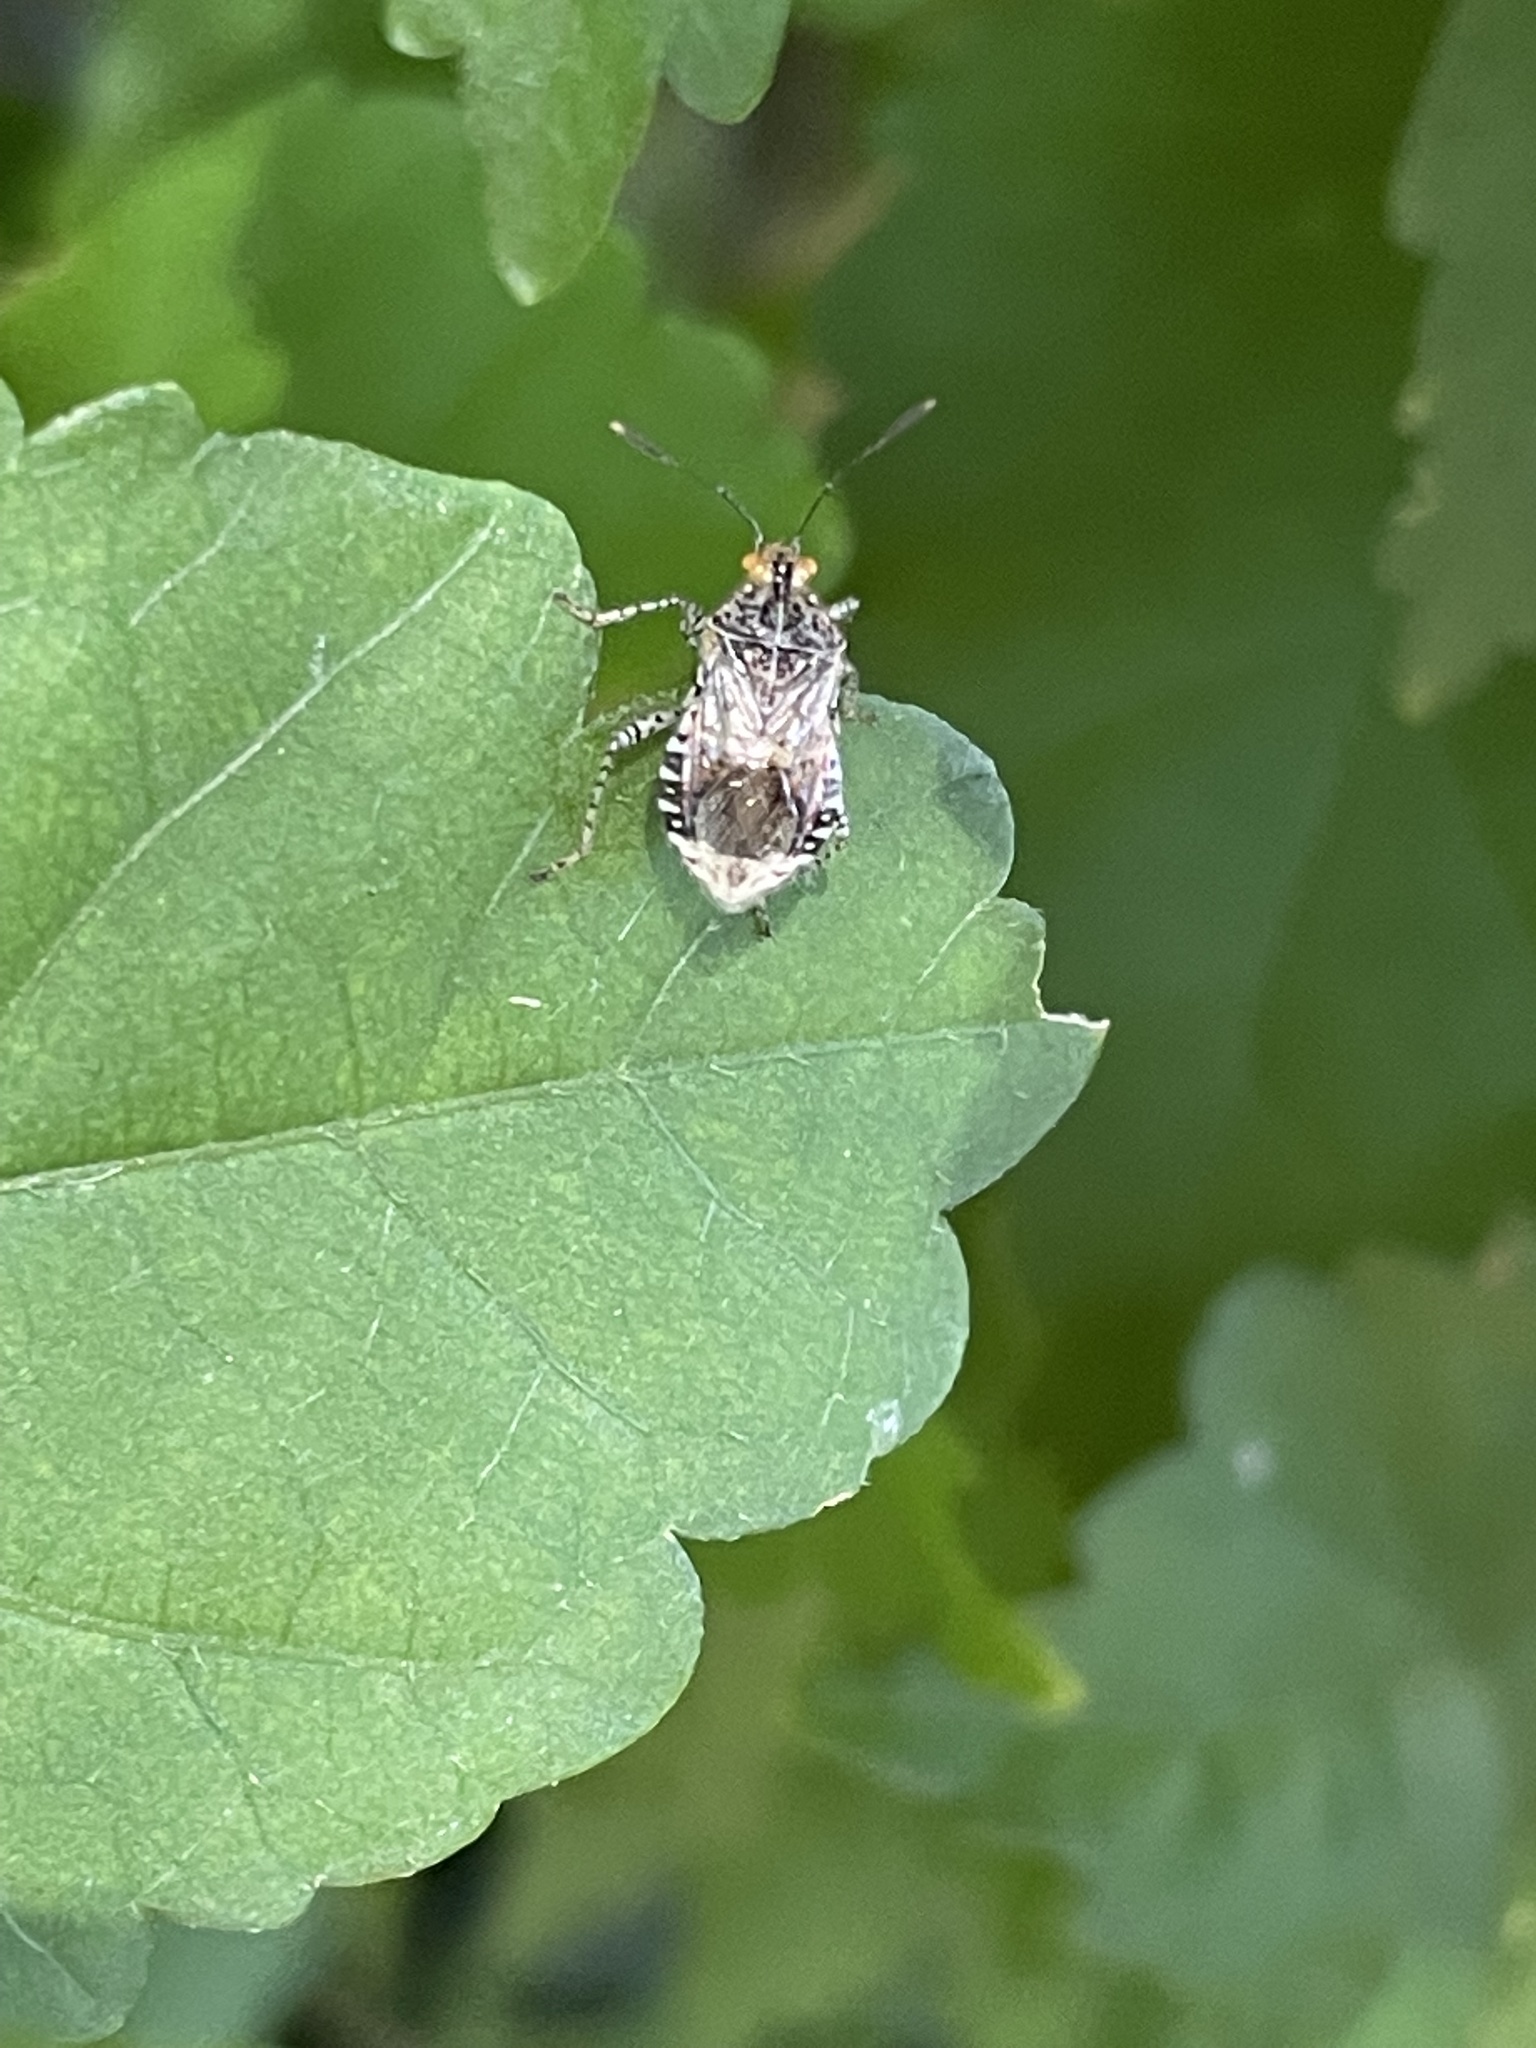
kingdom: Animalia
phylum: Arthropoda
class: Insecta
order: Hemiptera
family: Rhopalidae
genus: Niesthrea
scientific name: Niesthrea louisianica
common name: Scentless plant bug
